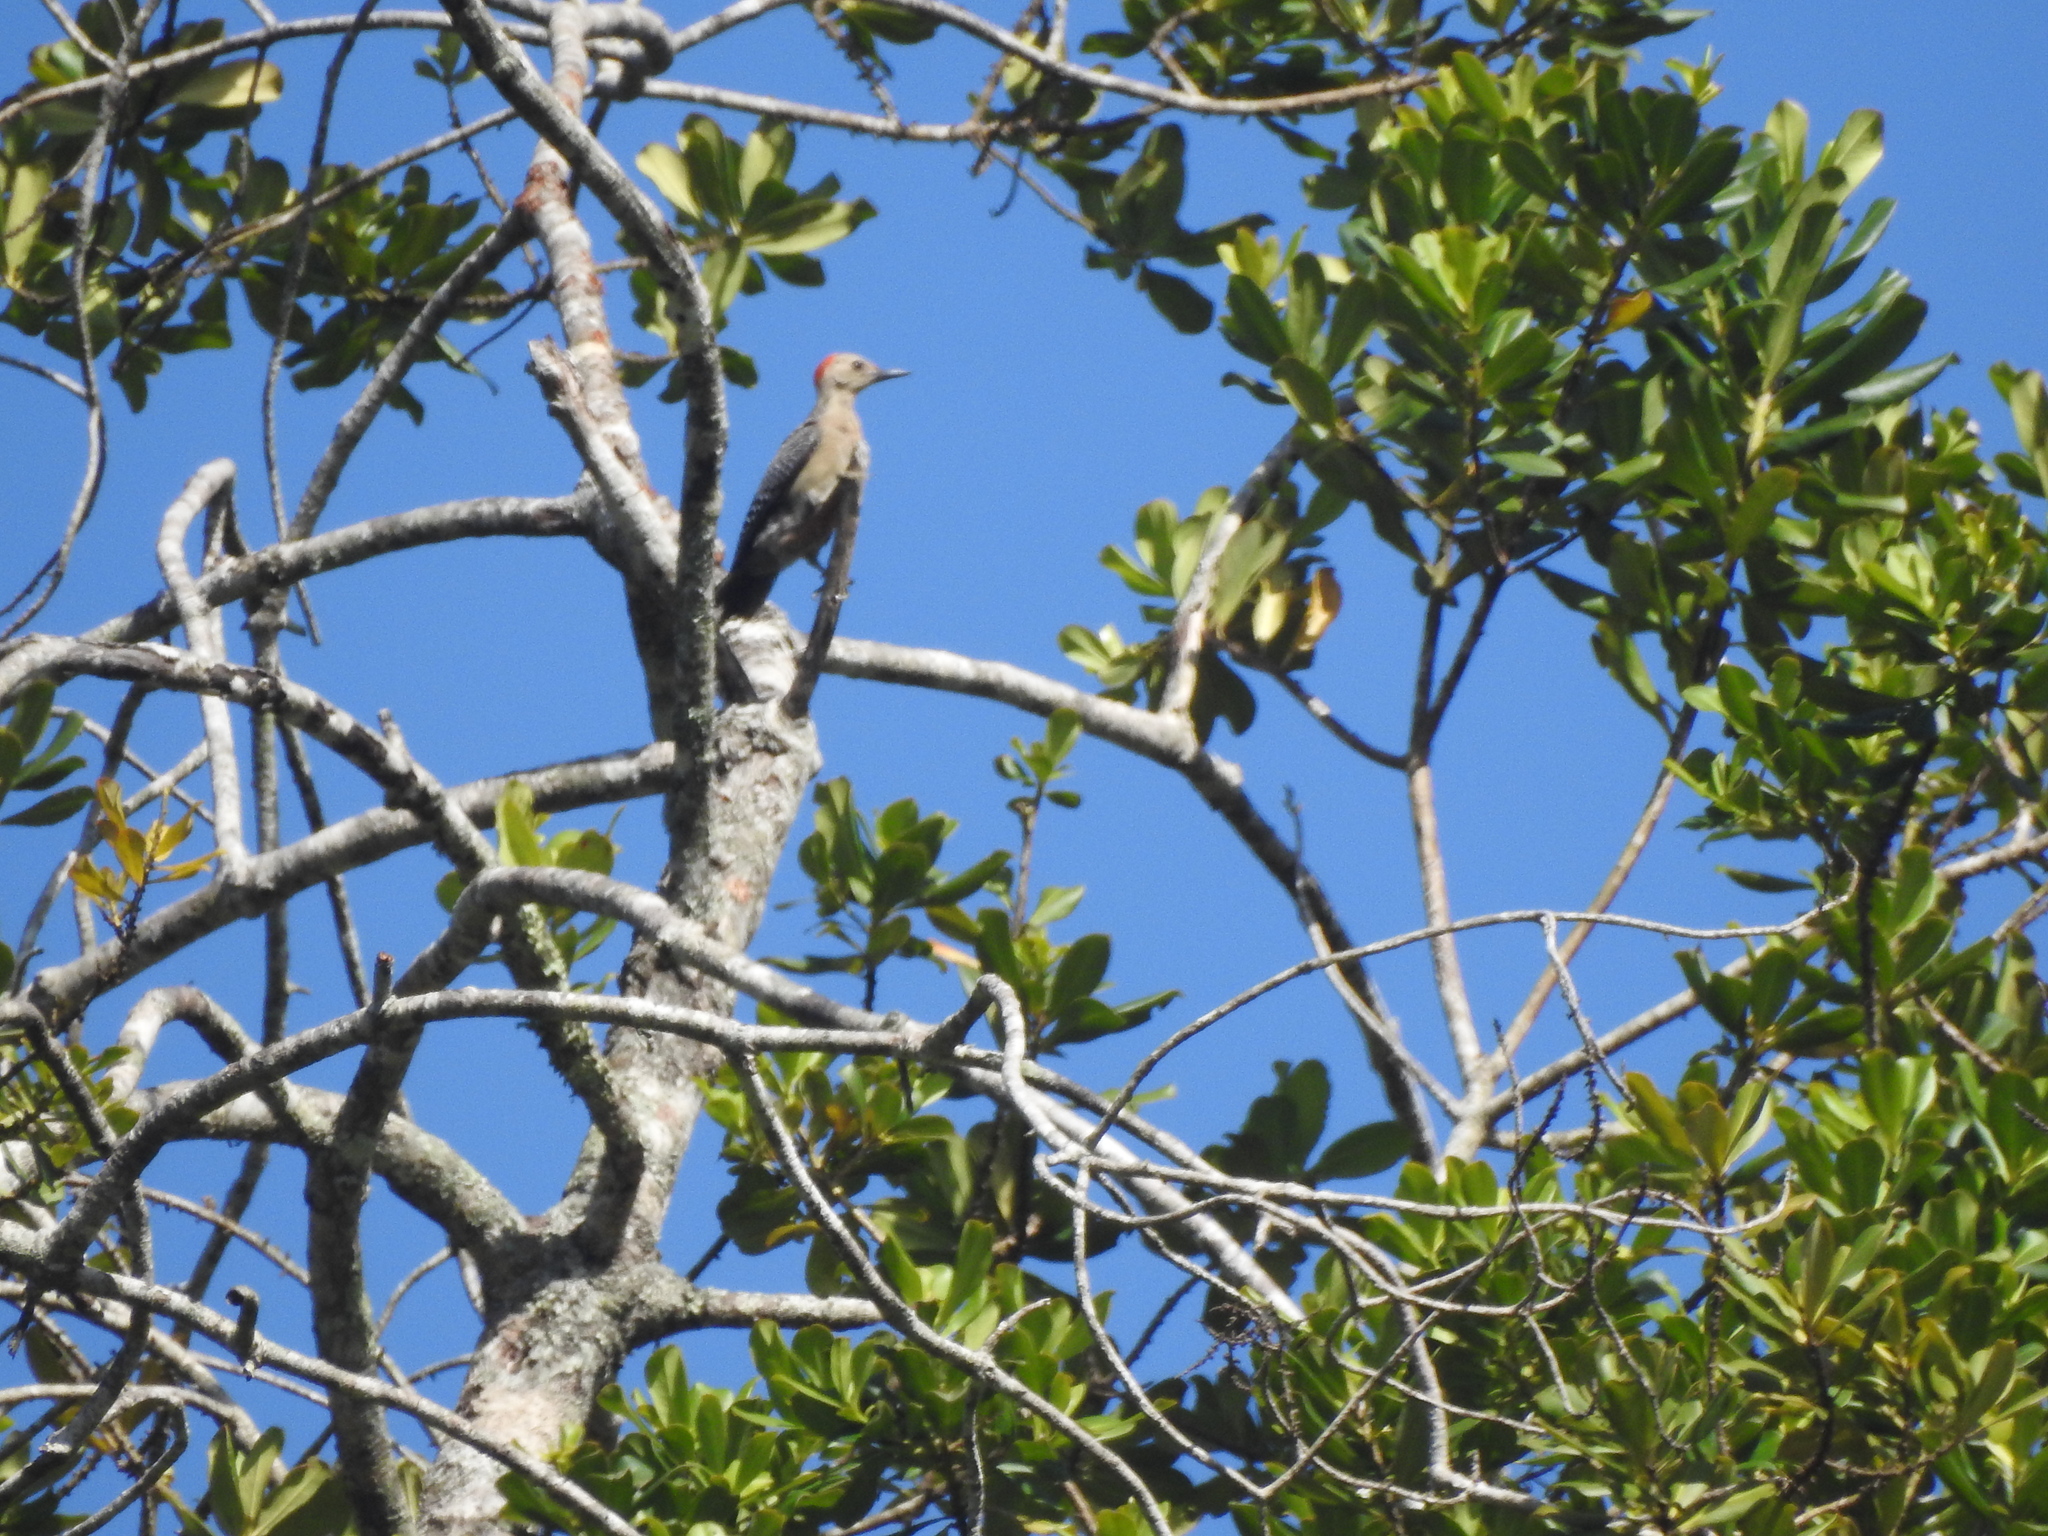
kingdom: Animalia
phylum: Chordata
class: Aves
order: Piciformes
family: Picidae
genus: Melanerpes
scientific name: Melanerpes aurifrons
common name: Golden-fronted woodpecker
